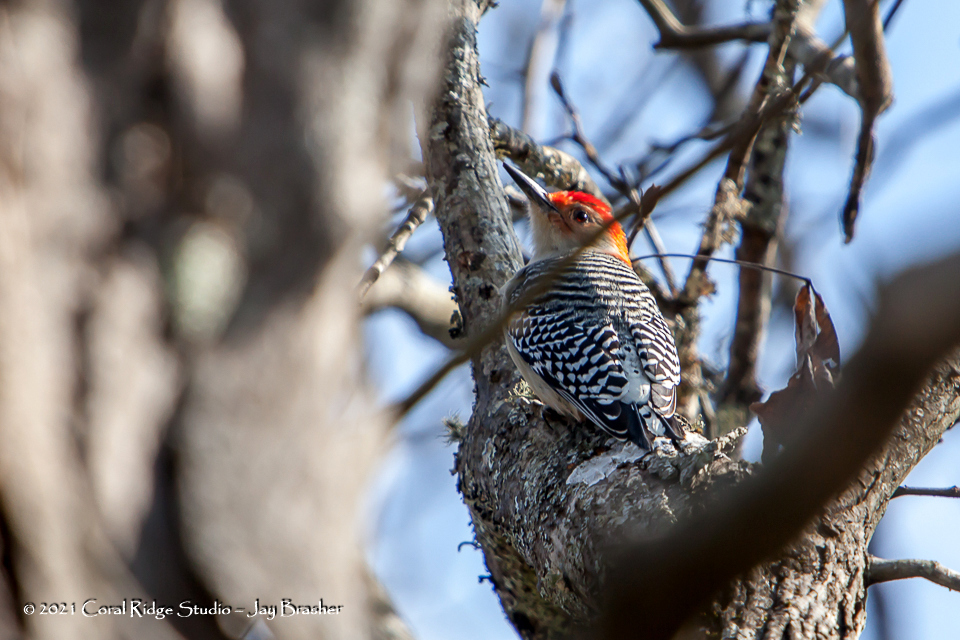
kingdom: Animalia
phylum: Chordata
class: Aves
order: Piciformes
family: Picidae
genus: Melanerpes
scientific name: Melanerpes carolinus
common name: Red-bellied woodpecker
